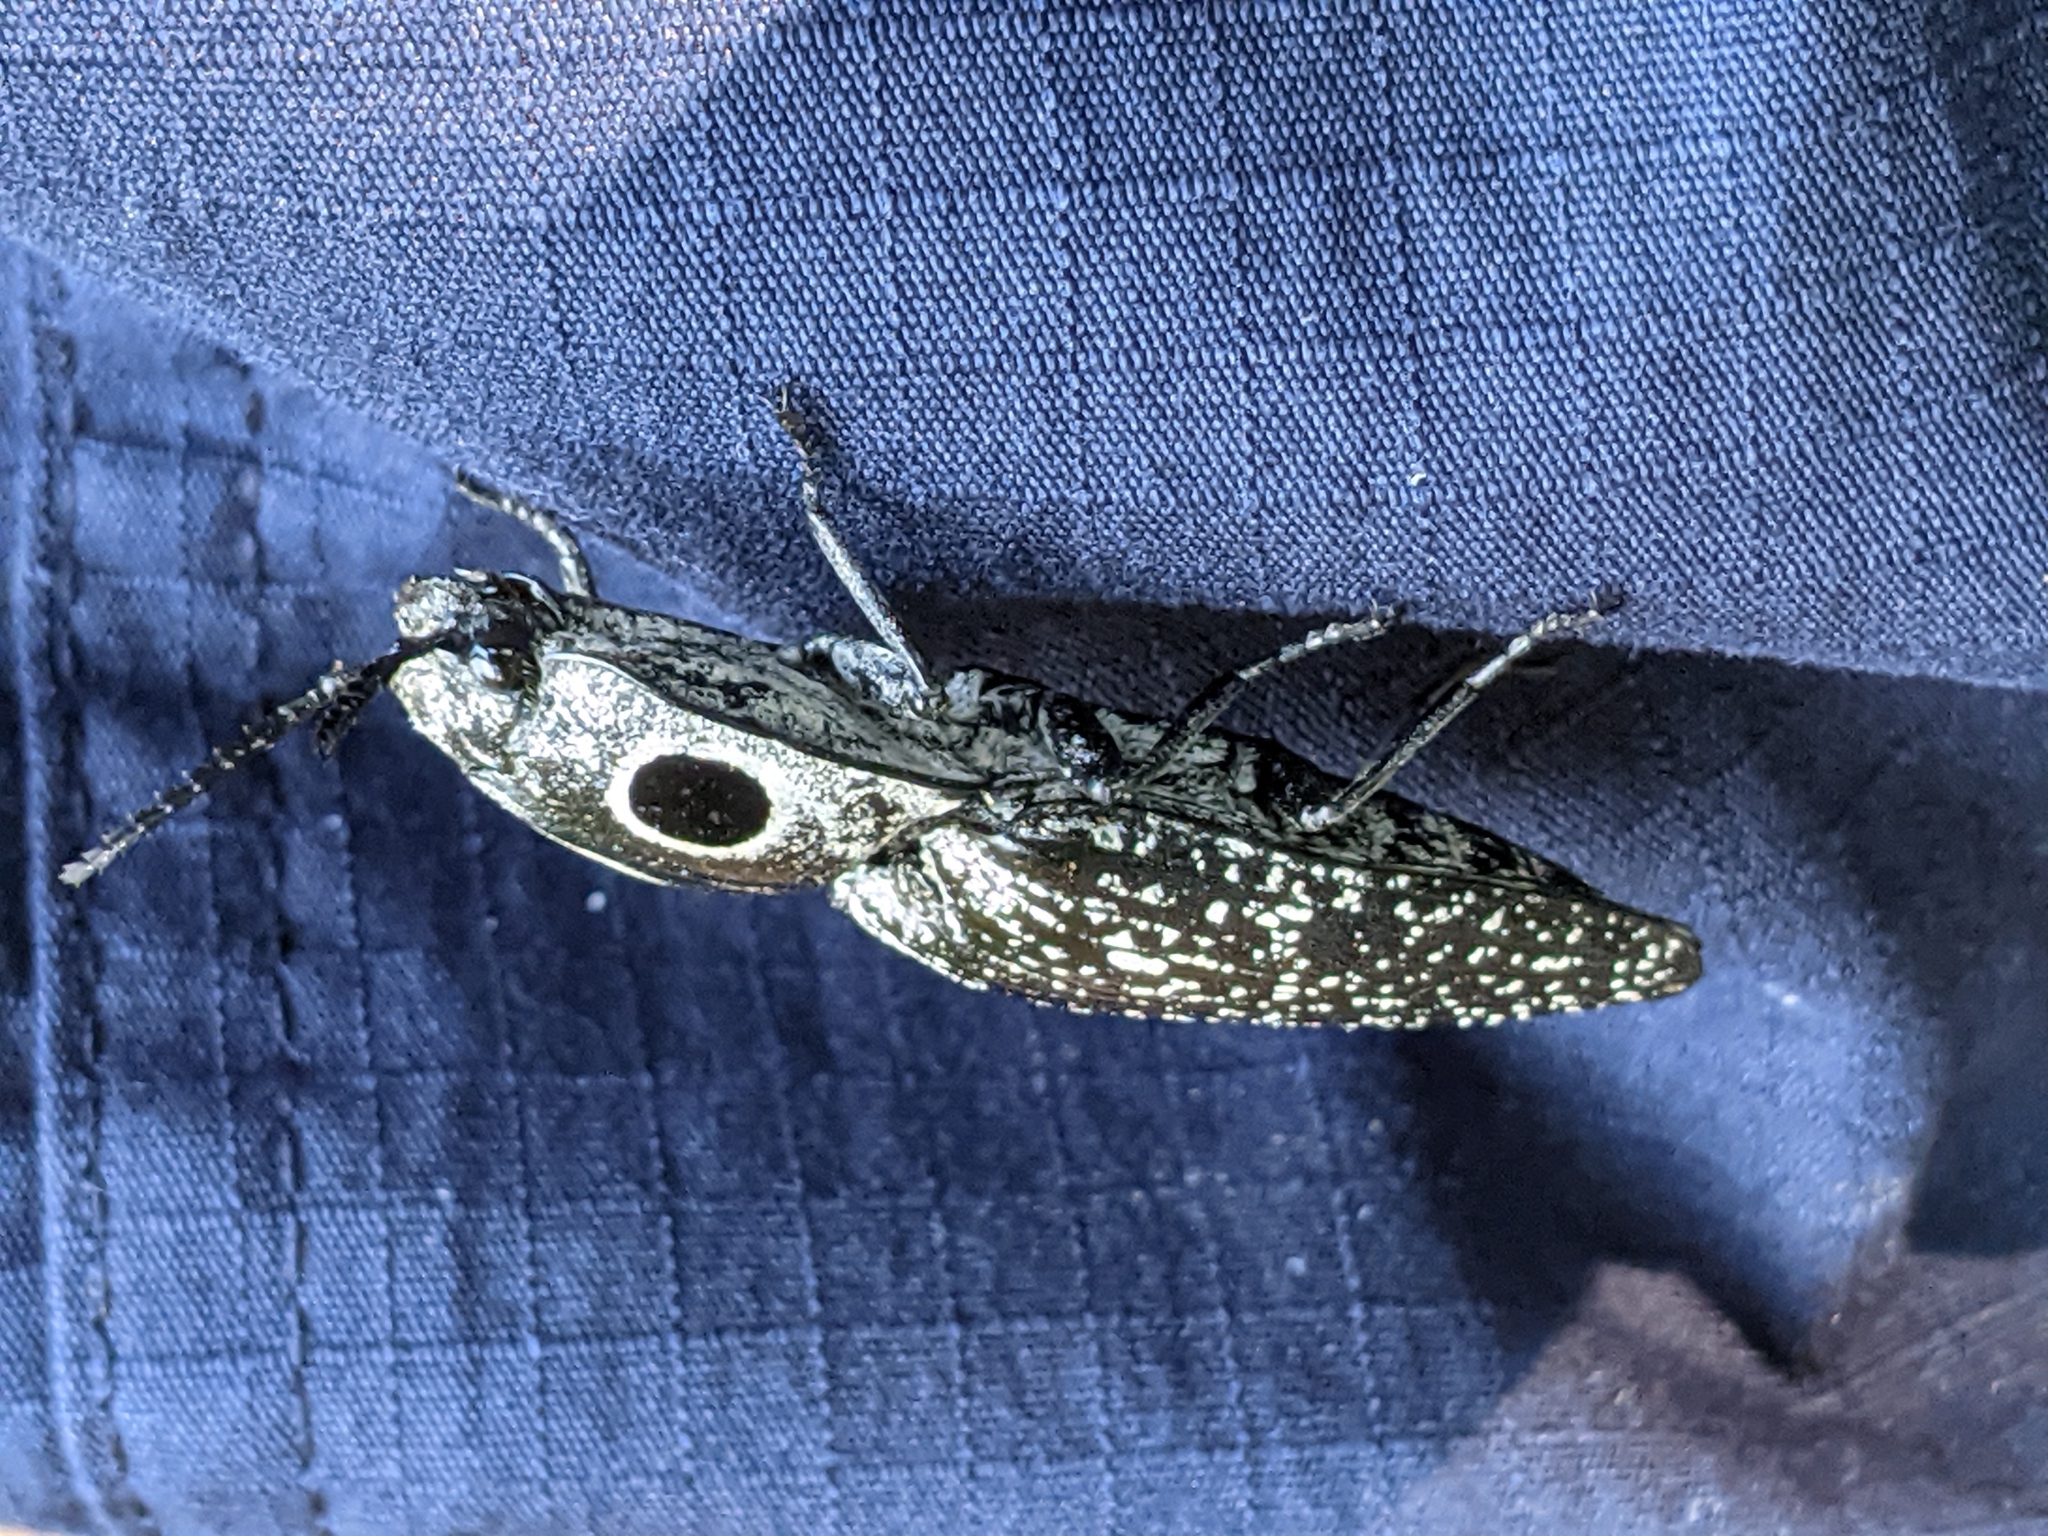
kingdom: Animalia
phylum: Arthropoda
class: Insecta
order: Coleoptera
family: Elateridae
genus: Alaus
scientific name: Alaus oculatus
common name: Eastern eyed click beetle
